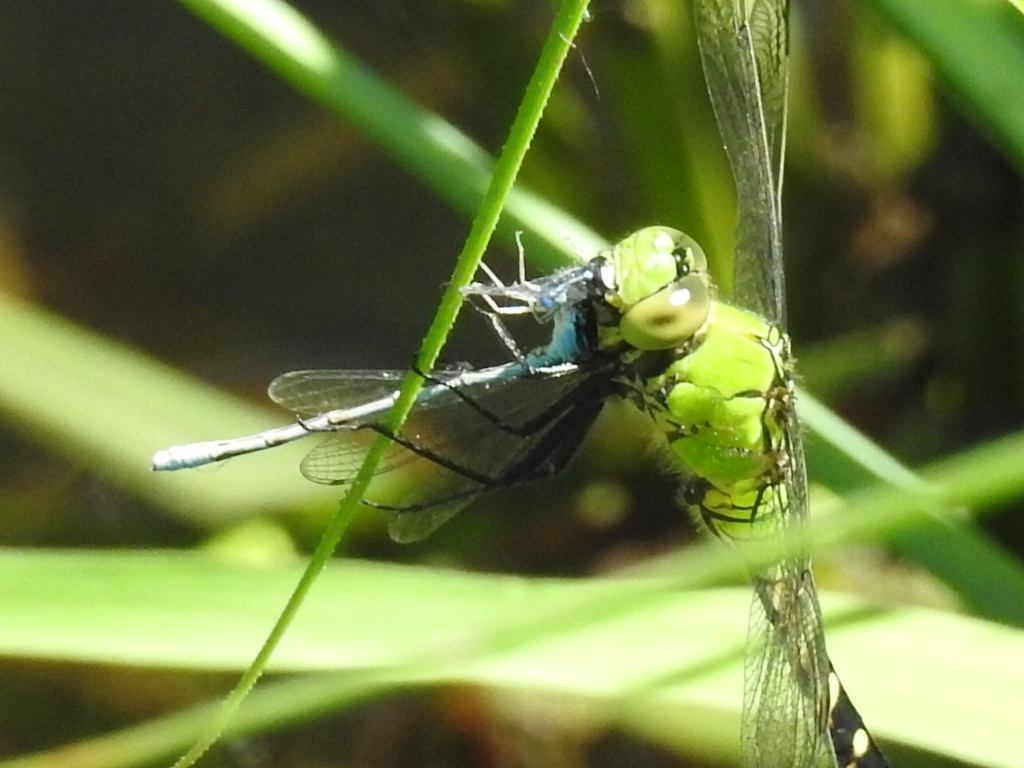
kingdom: Animalia
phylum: Arthropoda
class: Insecta
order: Odonata
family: Libellulidae
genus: Erythemis
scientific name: Erythemis simplicicollis
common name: Eastern pondhawk
